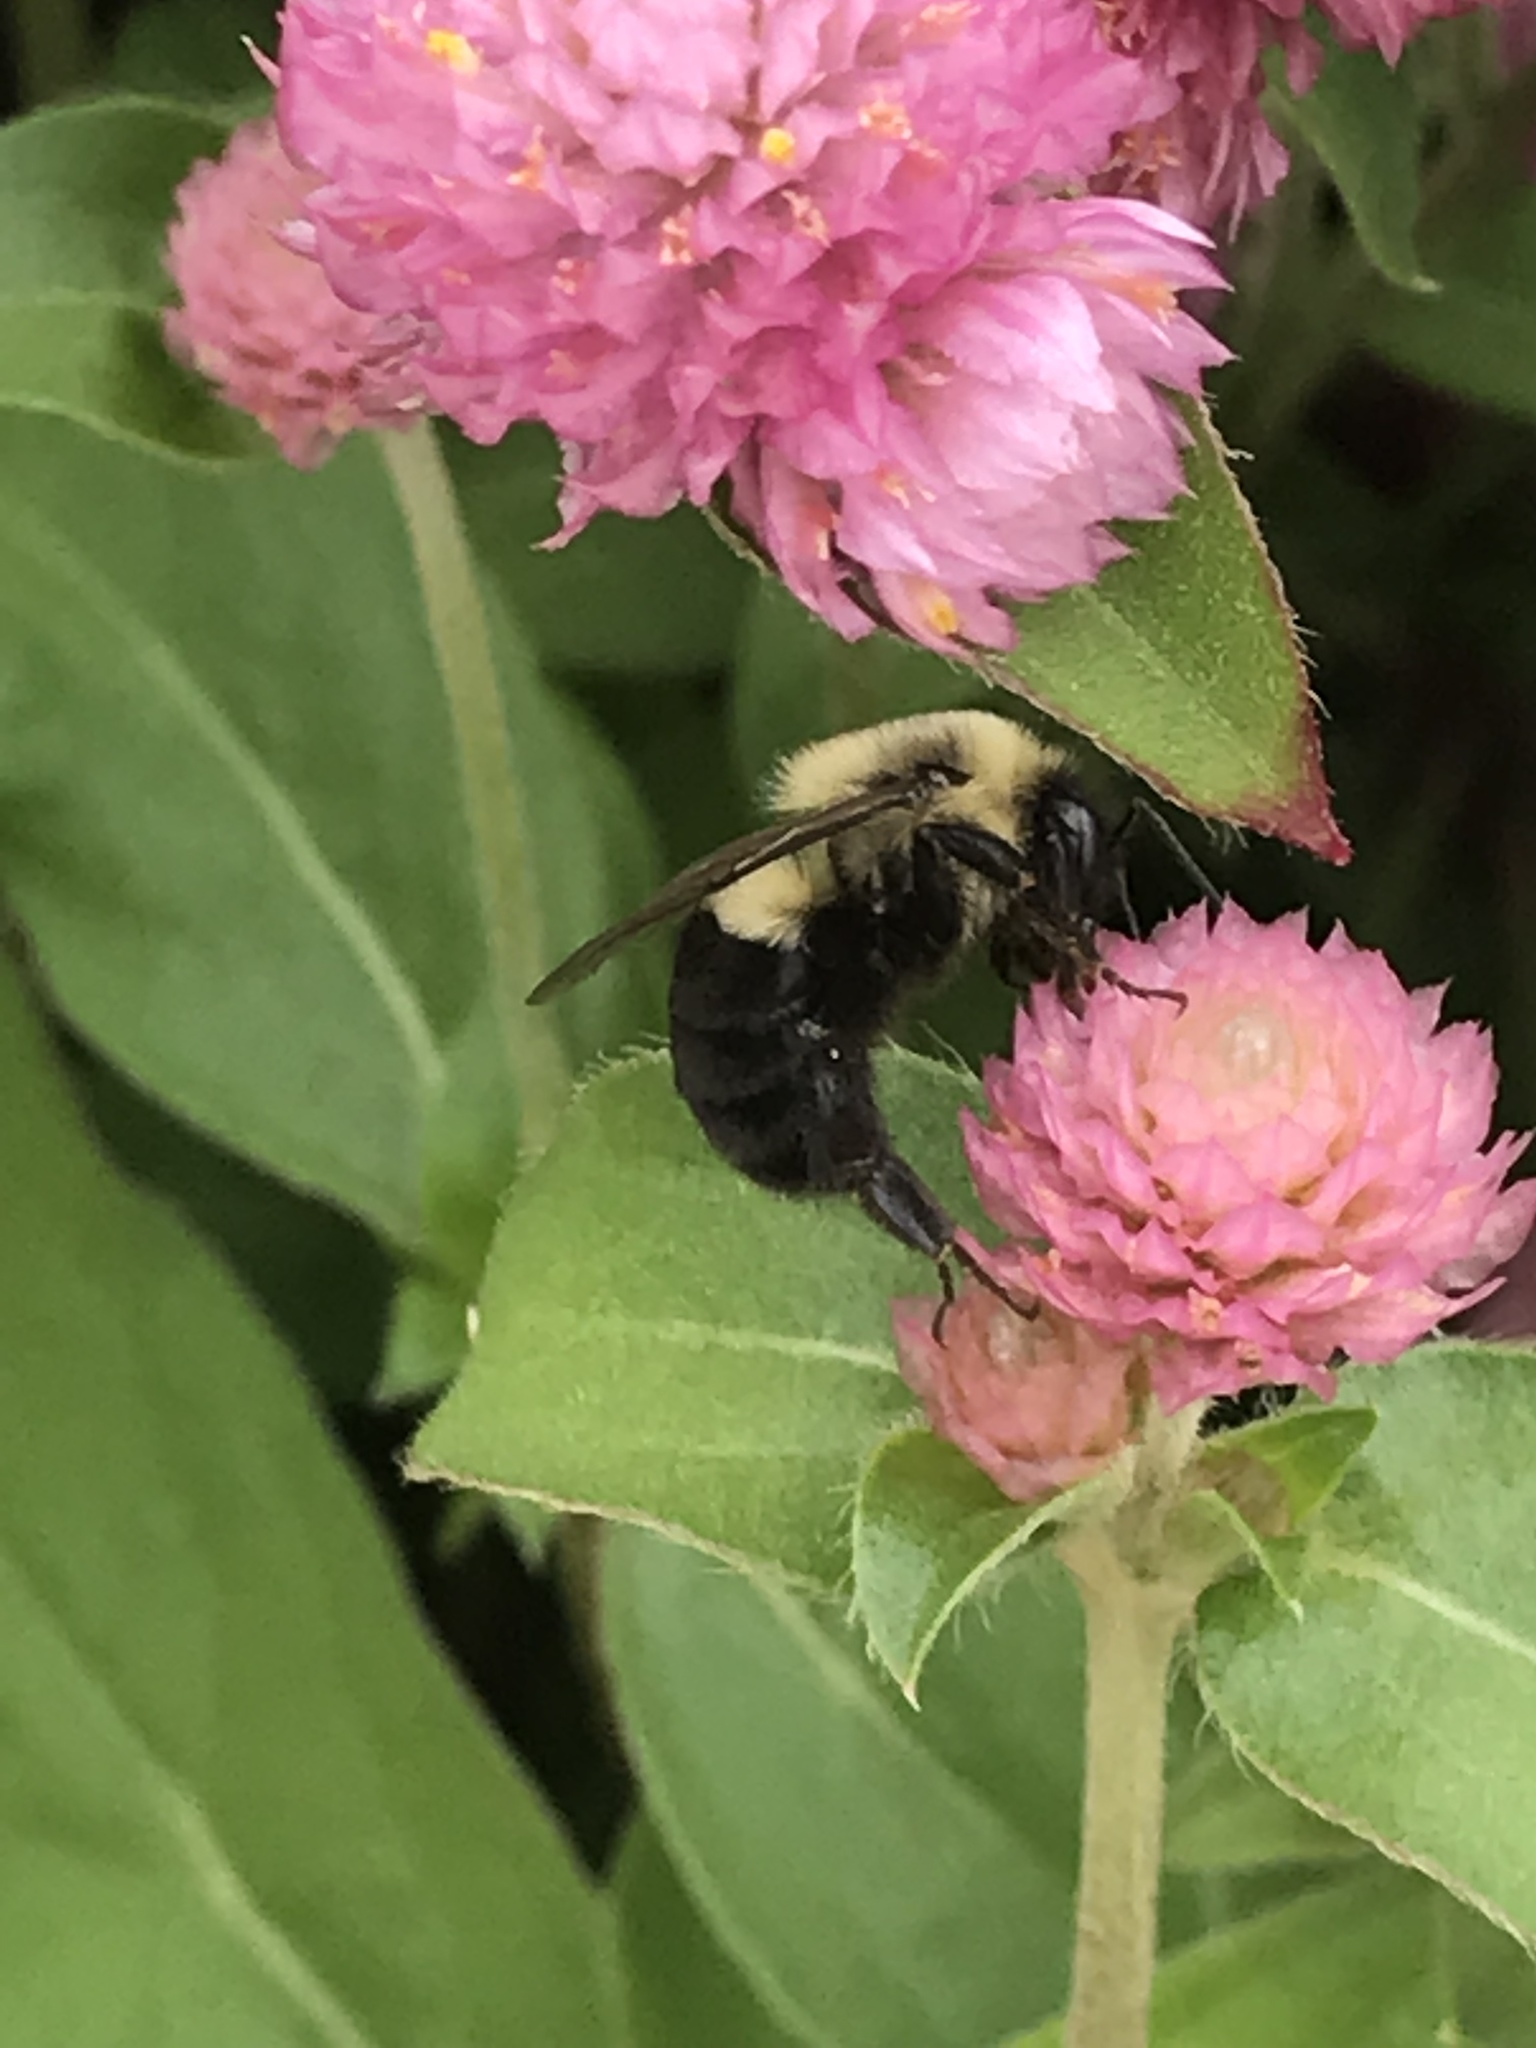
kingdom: Animalia
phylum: Arthropoda
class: Insecta
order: Hymenoptera
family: Apidae
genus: Bombus
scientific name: Bombus impatiens
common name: Common eastern bumble bee
